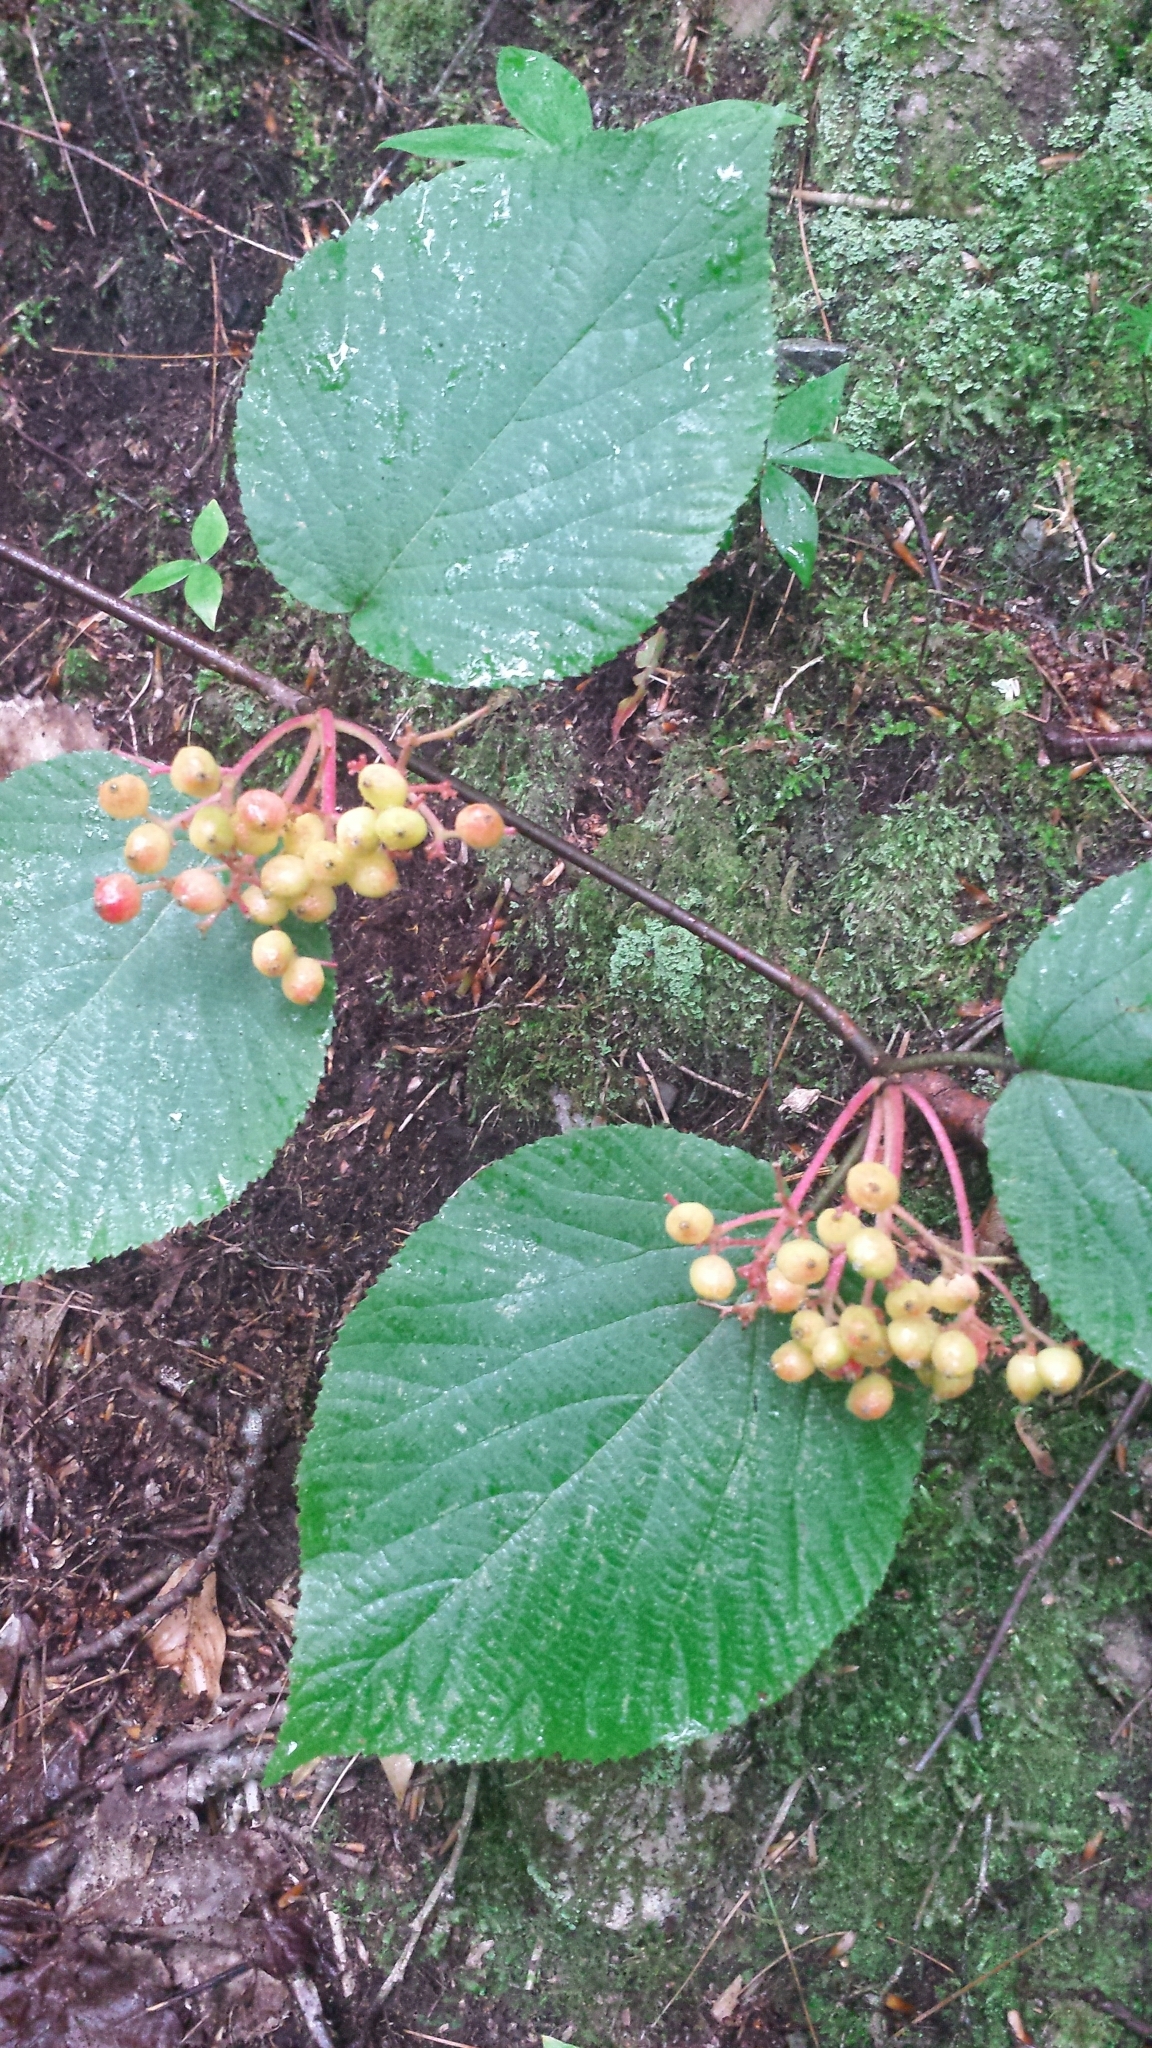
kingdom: Plantae
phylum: Tracheophyta
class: Magnoliopsida
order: Dipsacales
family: Viburnaceae
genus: Viburnum
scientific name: Viburnum lantanoides
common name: Hobblebush
